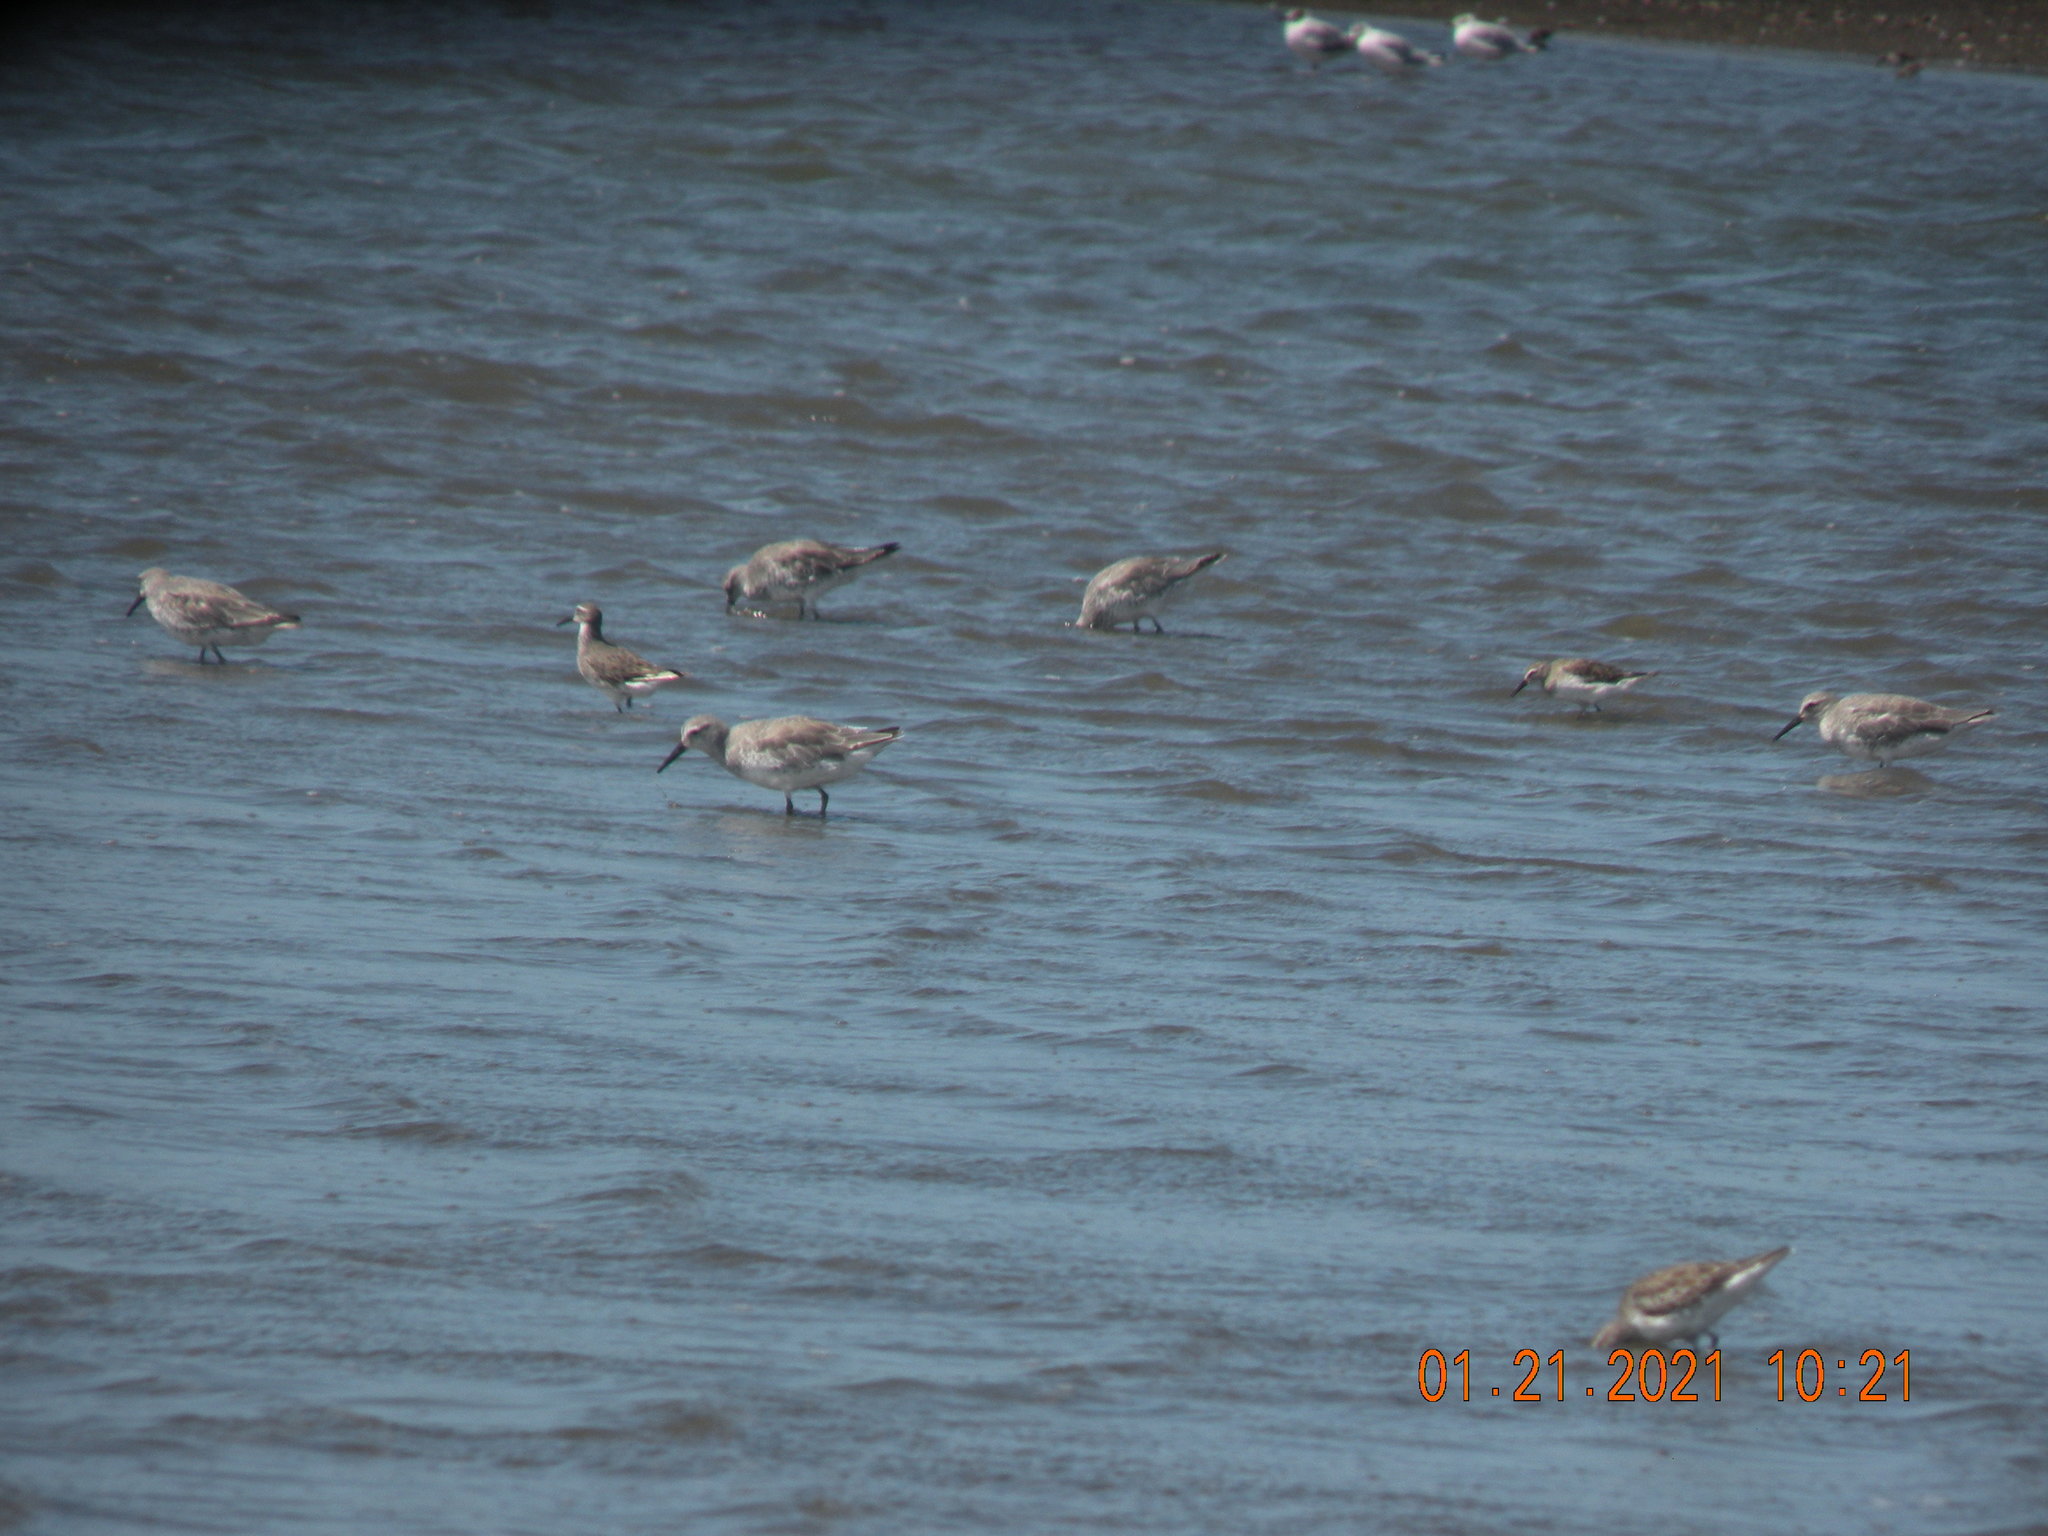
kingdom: Animalia
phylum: Chordata
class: Aves
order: Charadriiformes
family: Scolopacidae
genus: Calidris
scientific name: Calidris canutus
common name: Red knot
